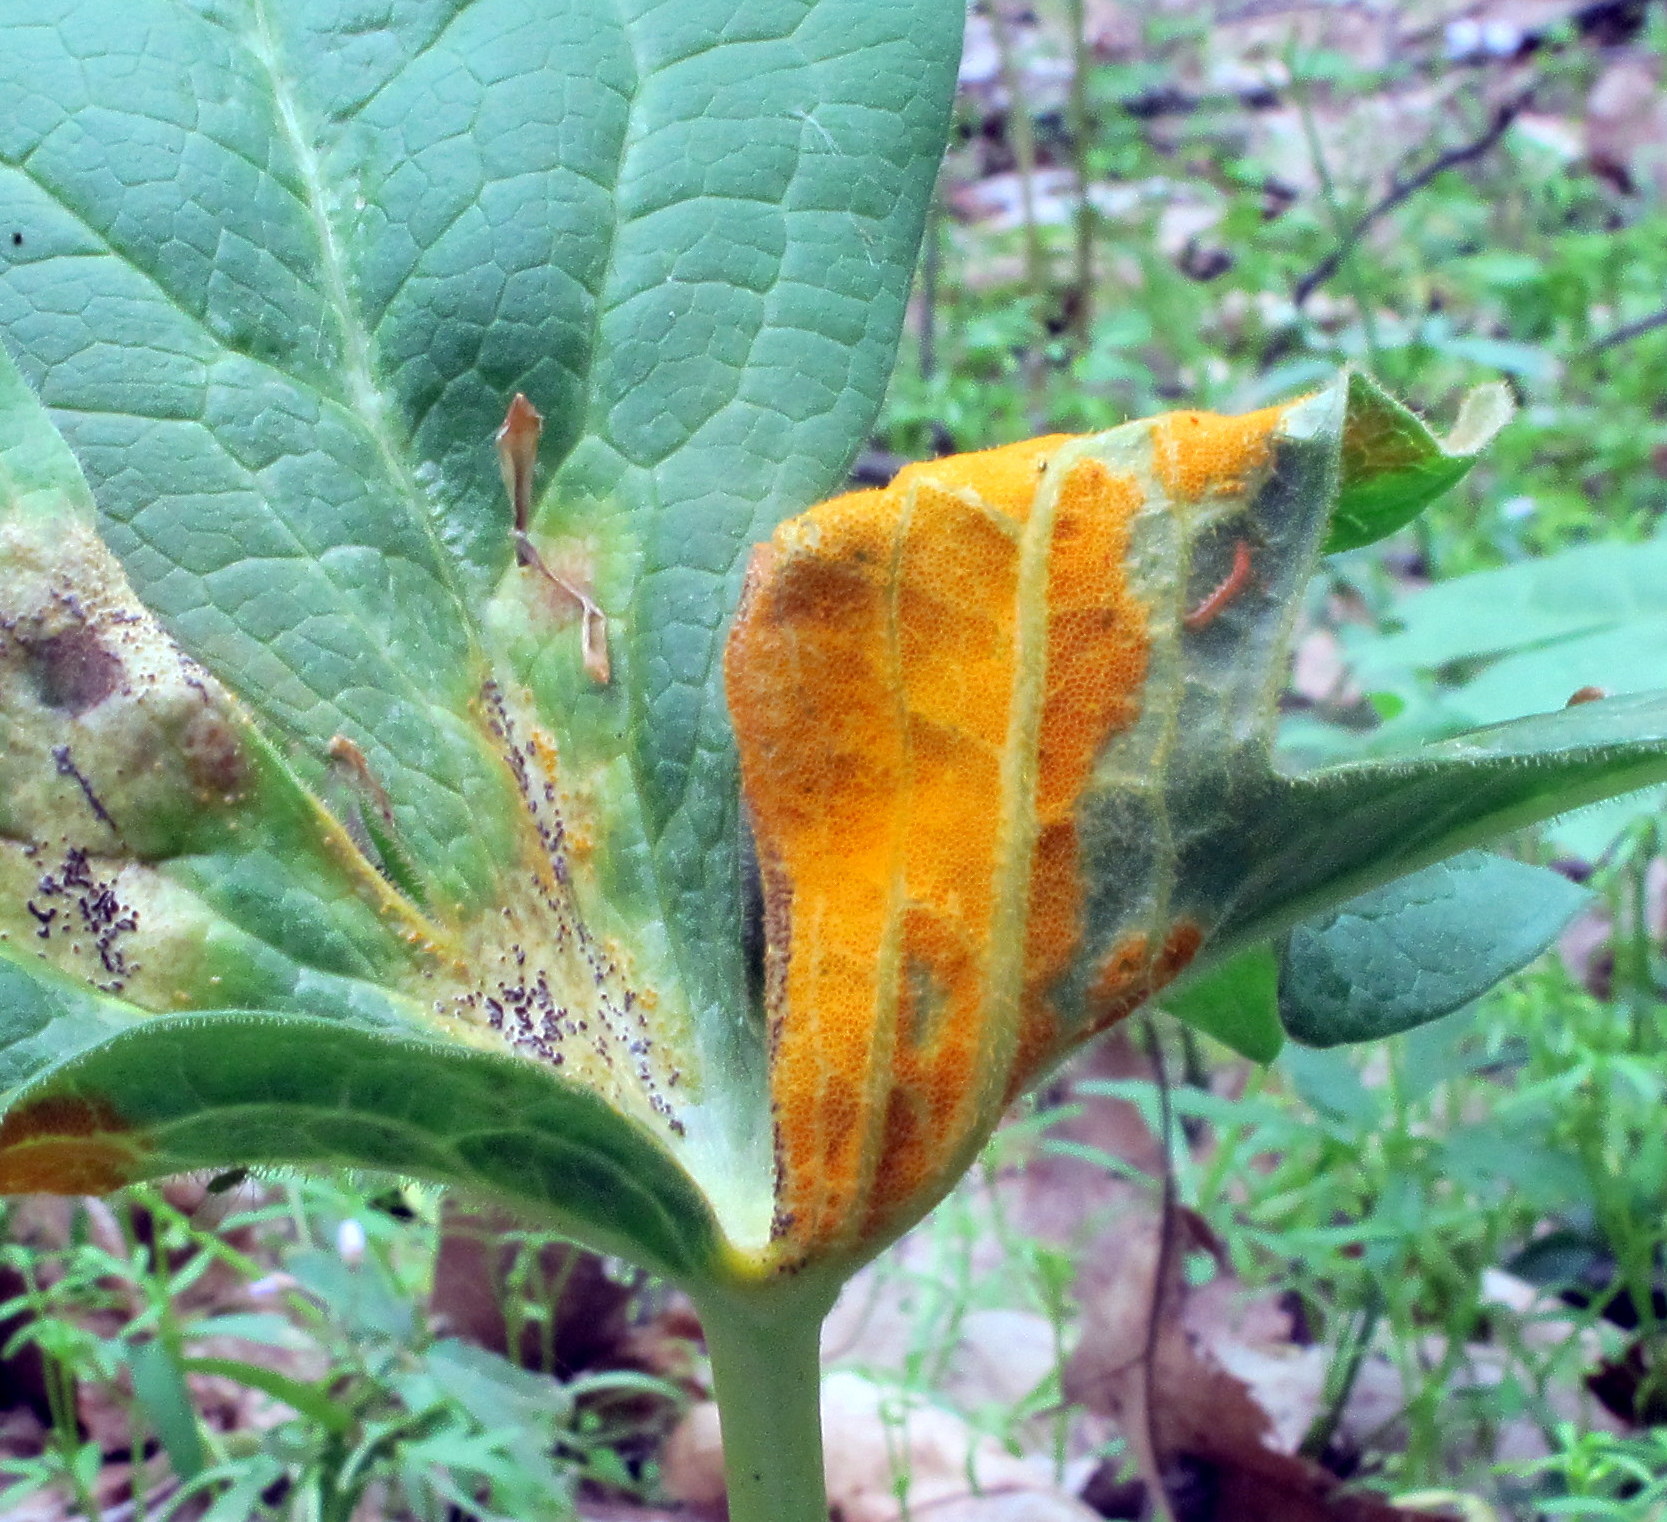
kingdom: Fungi
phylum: Basidiomycota
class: Pucciniomycetes
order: Pucciniales
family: Pucciniaceae
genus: Puccinia
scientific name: Puccinia podophylli
